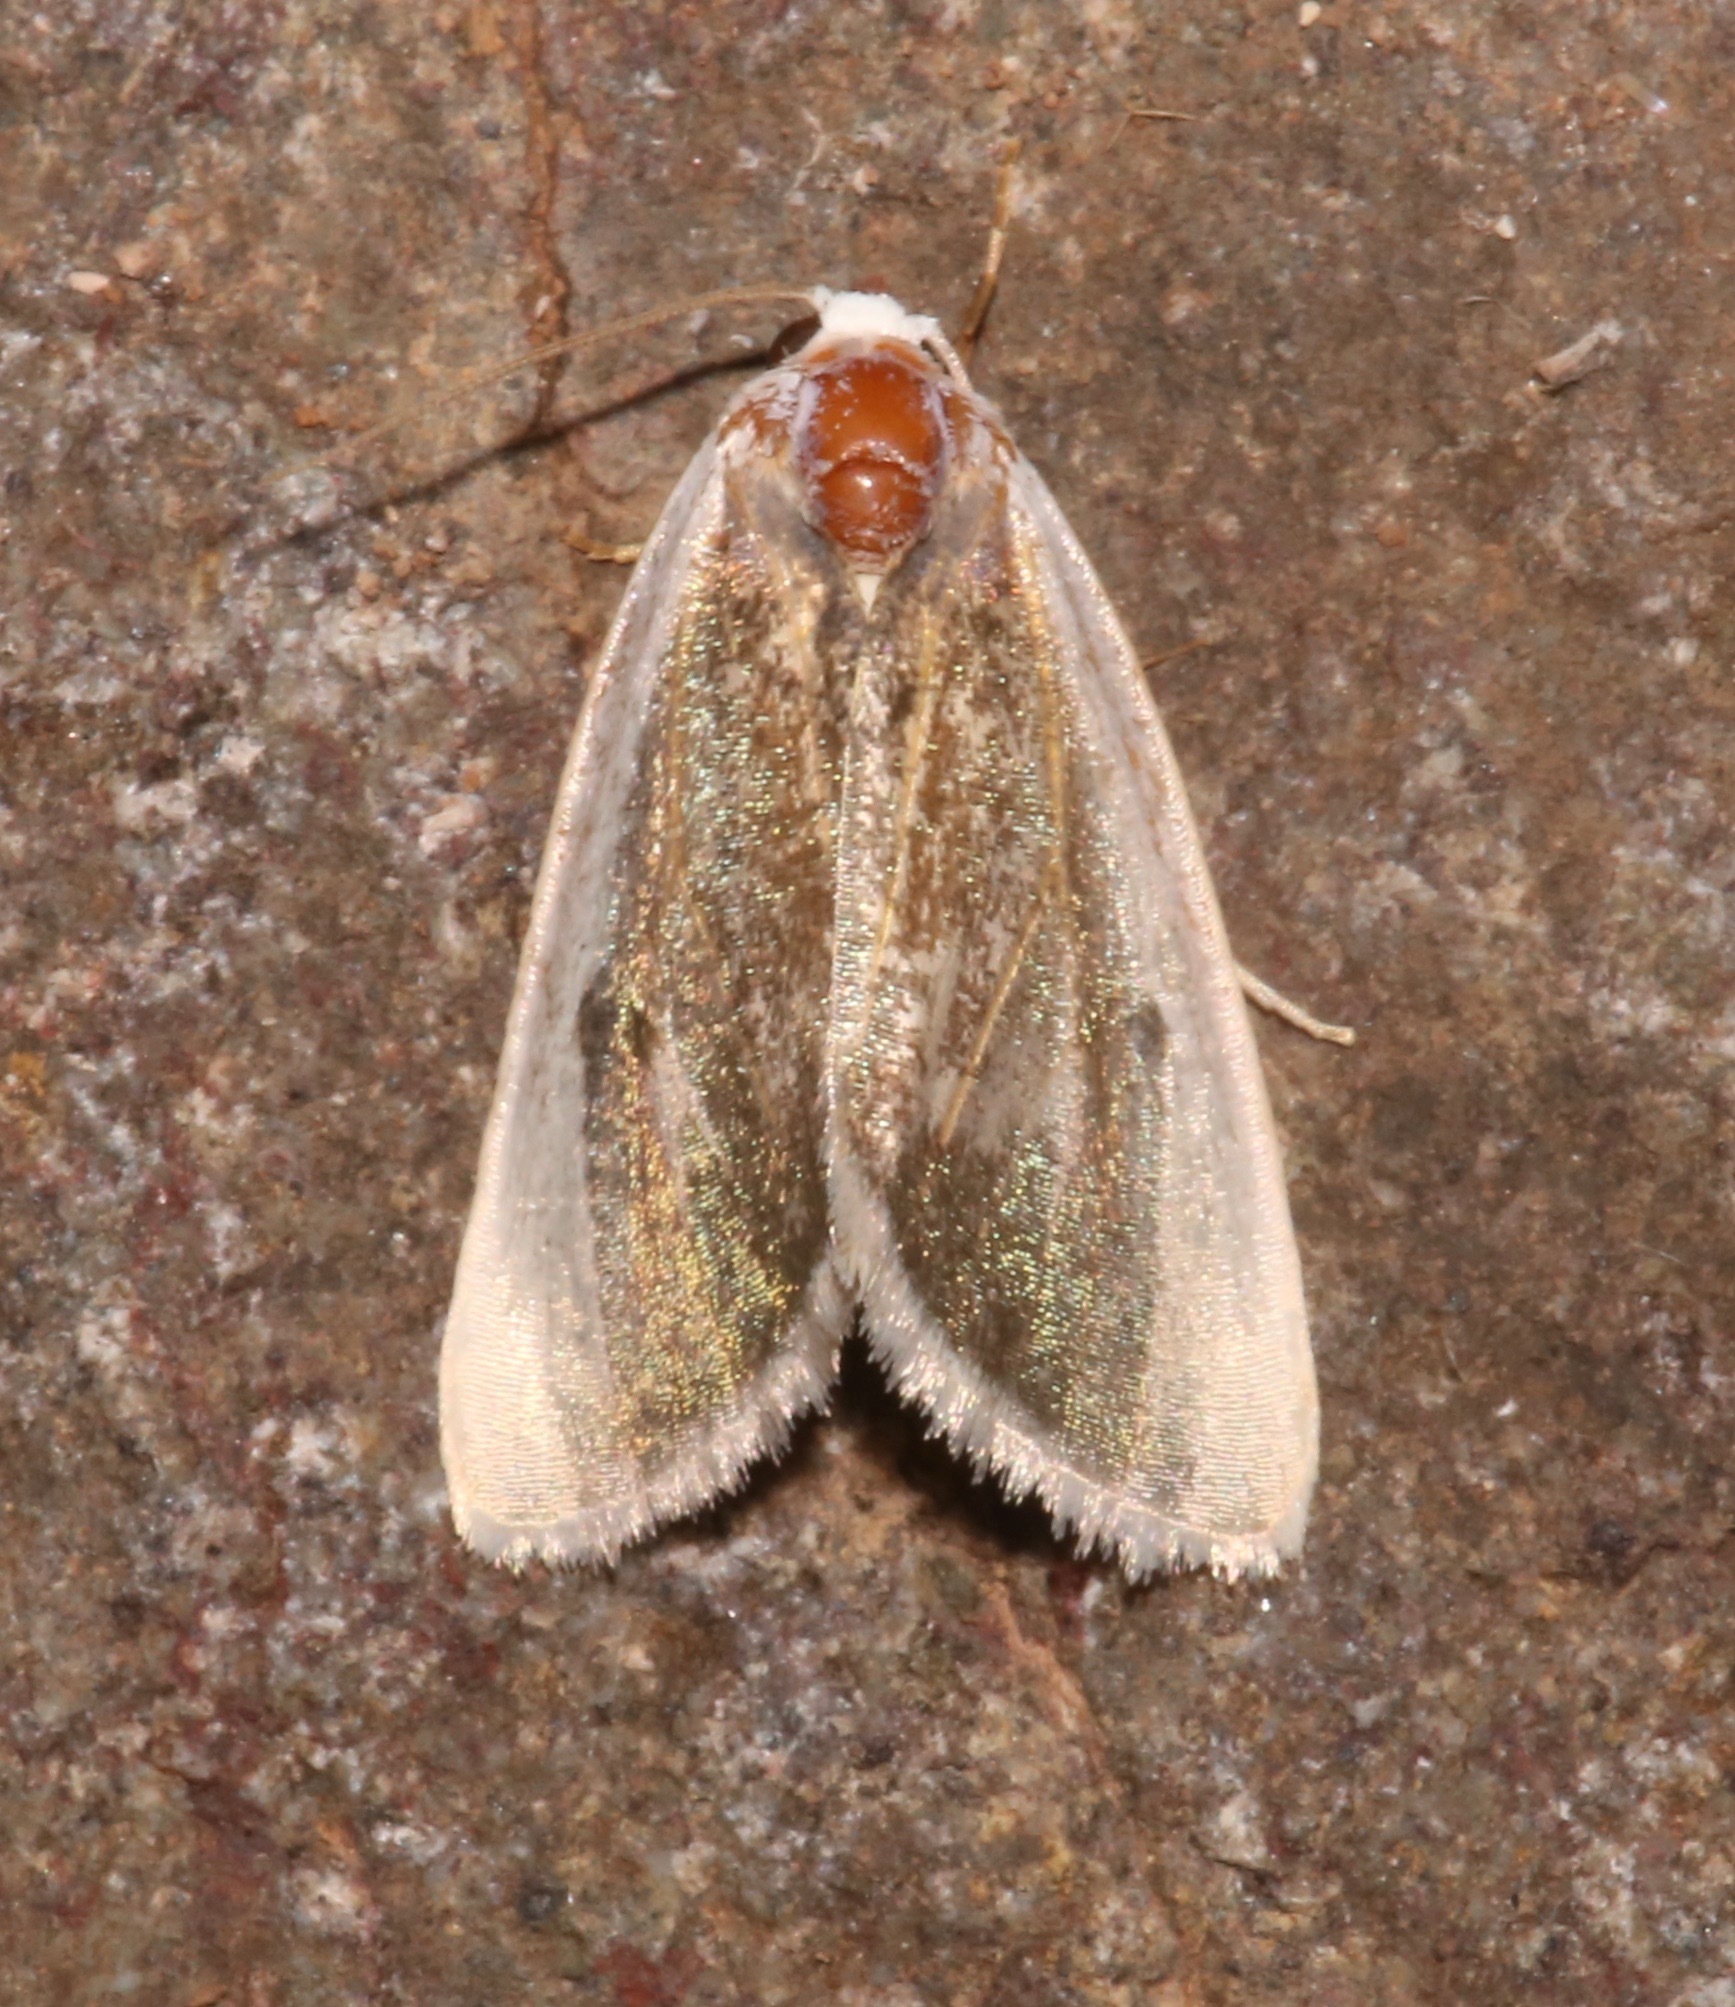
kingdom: Animalia
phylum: Arthropoda
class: Insecta
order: Lepidoptera
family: Noctuidae
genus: Neumoegenia
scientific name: Neumoegenia poetica
